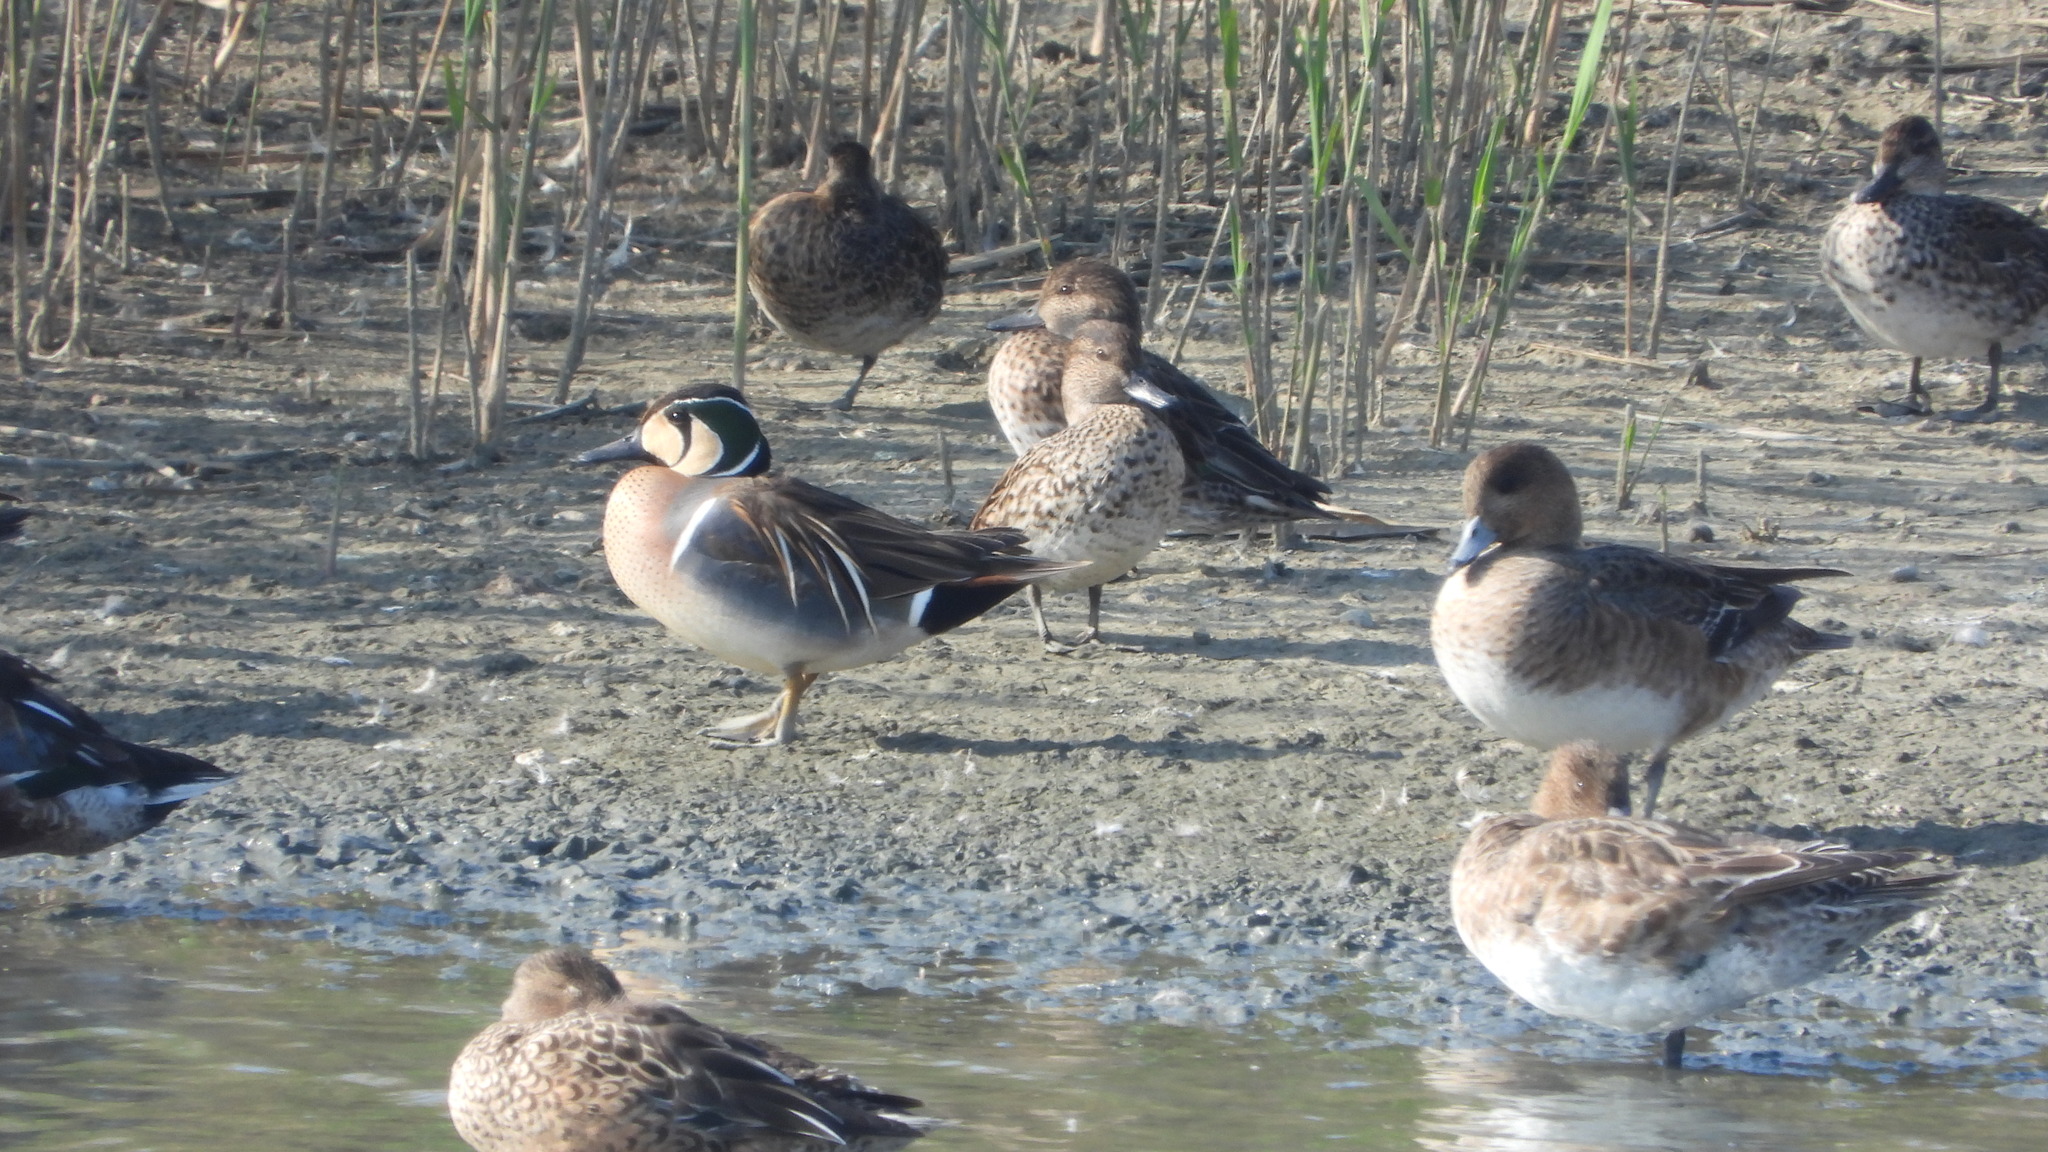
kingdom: Animalia
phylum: Chordata
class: Aves
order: Anseriformes
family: Anatidae
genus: Sibirionetta
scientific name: Sibirionetta formosa
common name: Baikal teal
